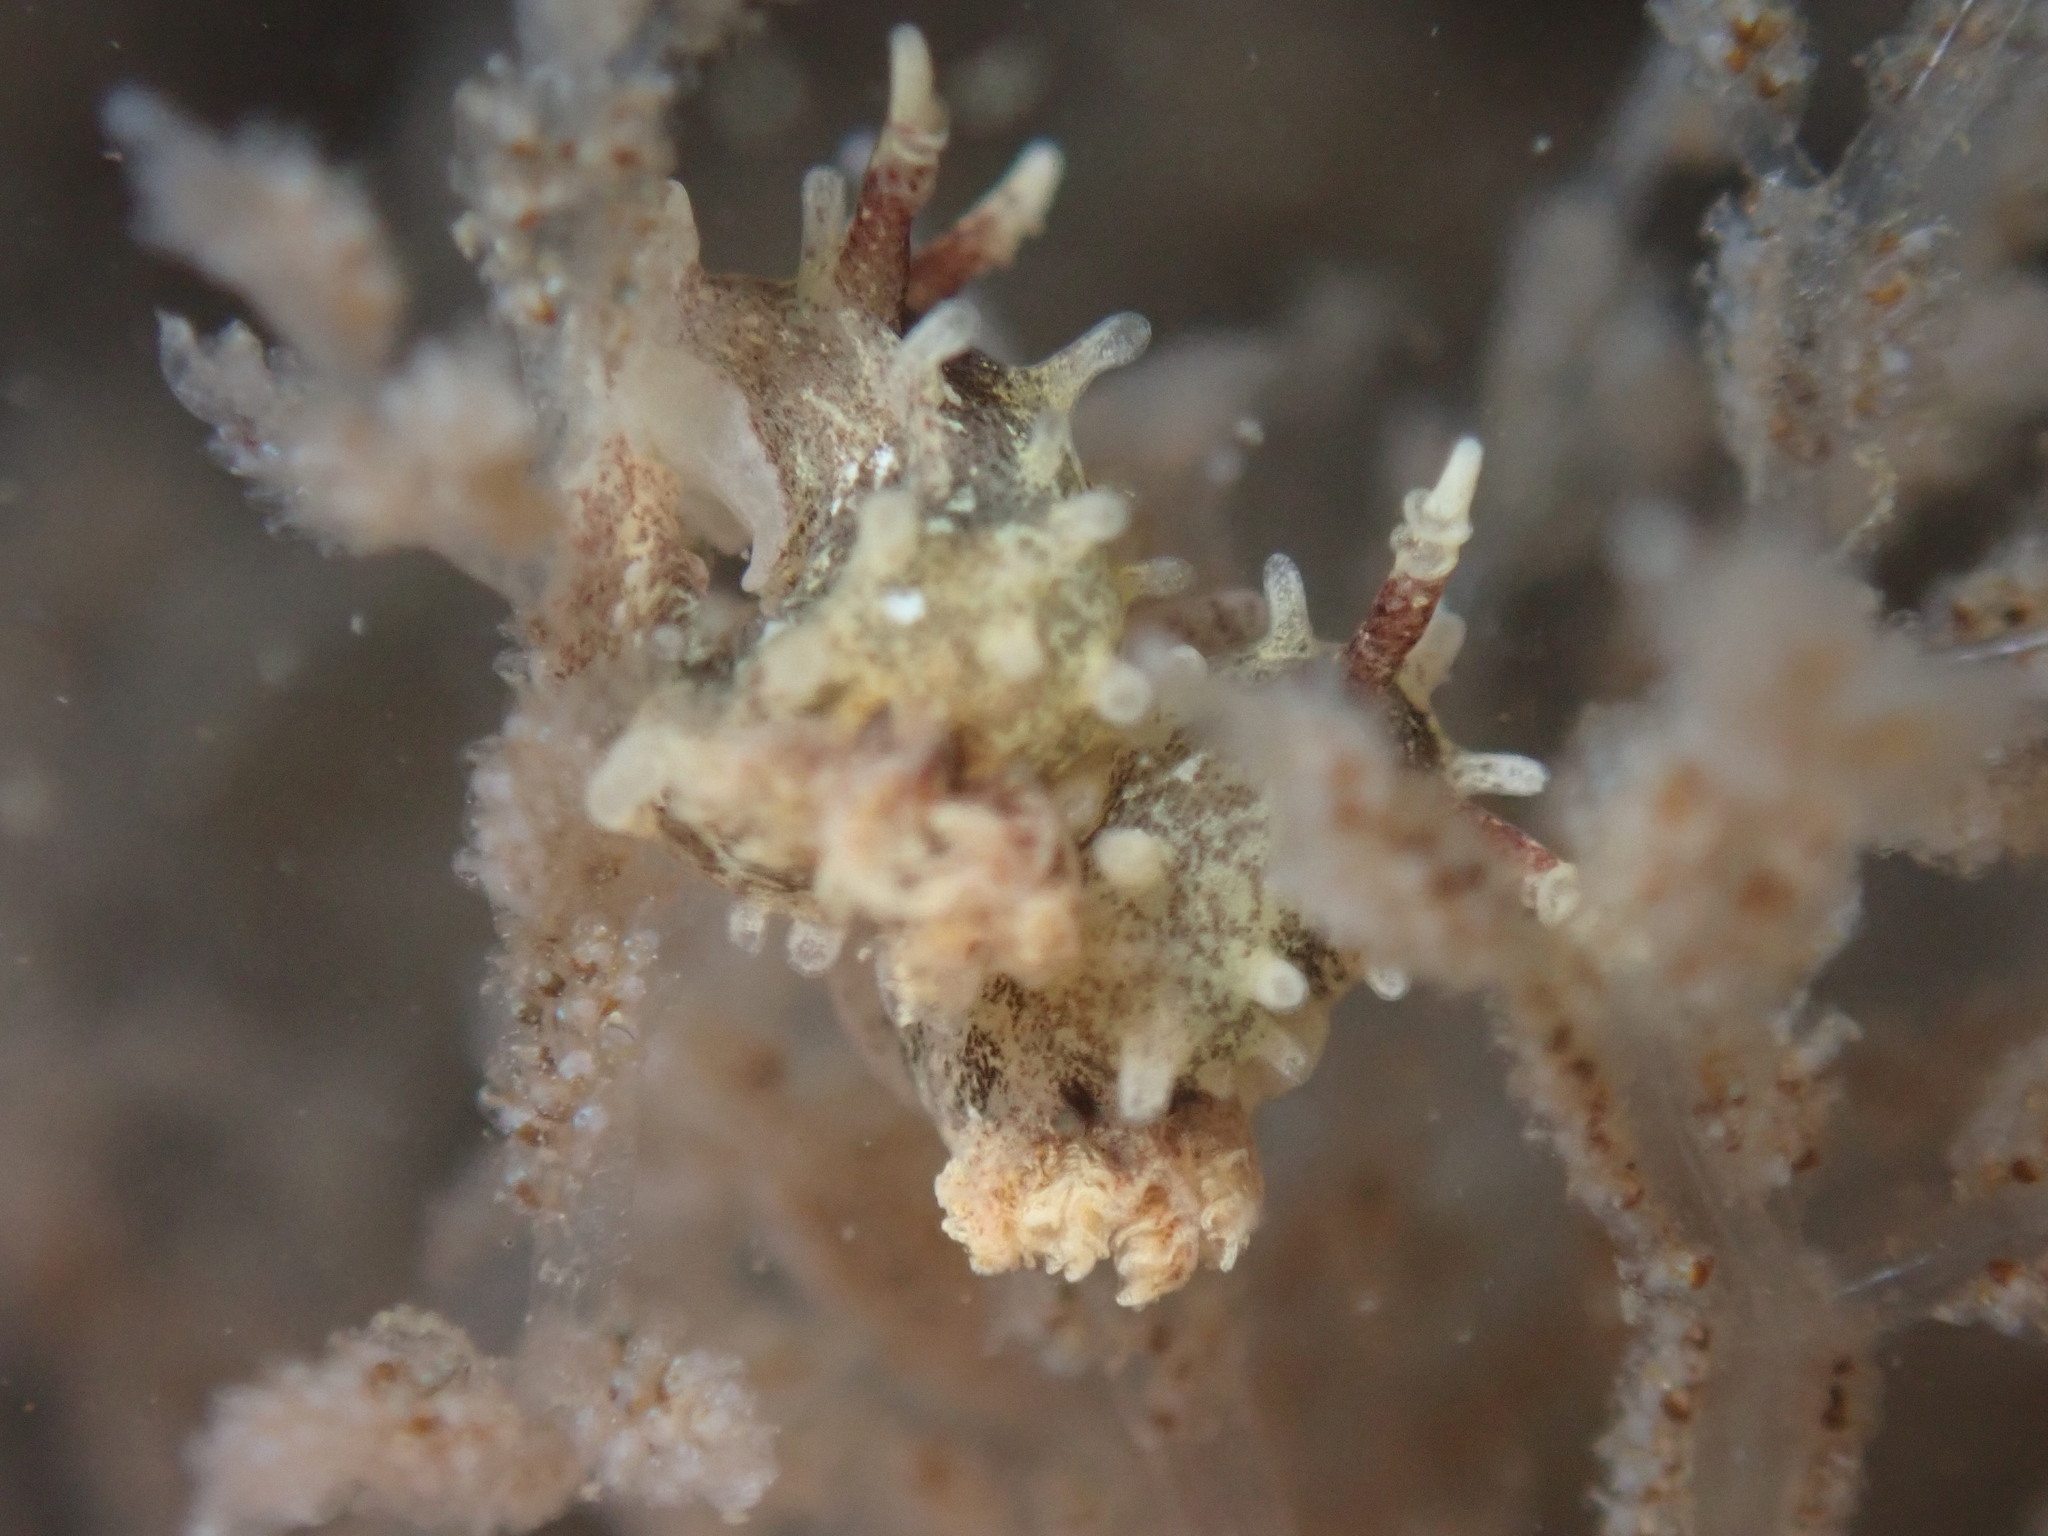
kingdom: Animalia
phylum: Mollusca
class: Gastropoda
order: Nudibranchia
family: Goniodorididae
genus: Okenia
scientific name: Okenia
